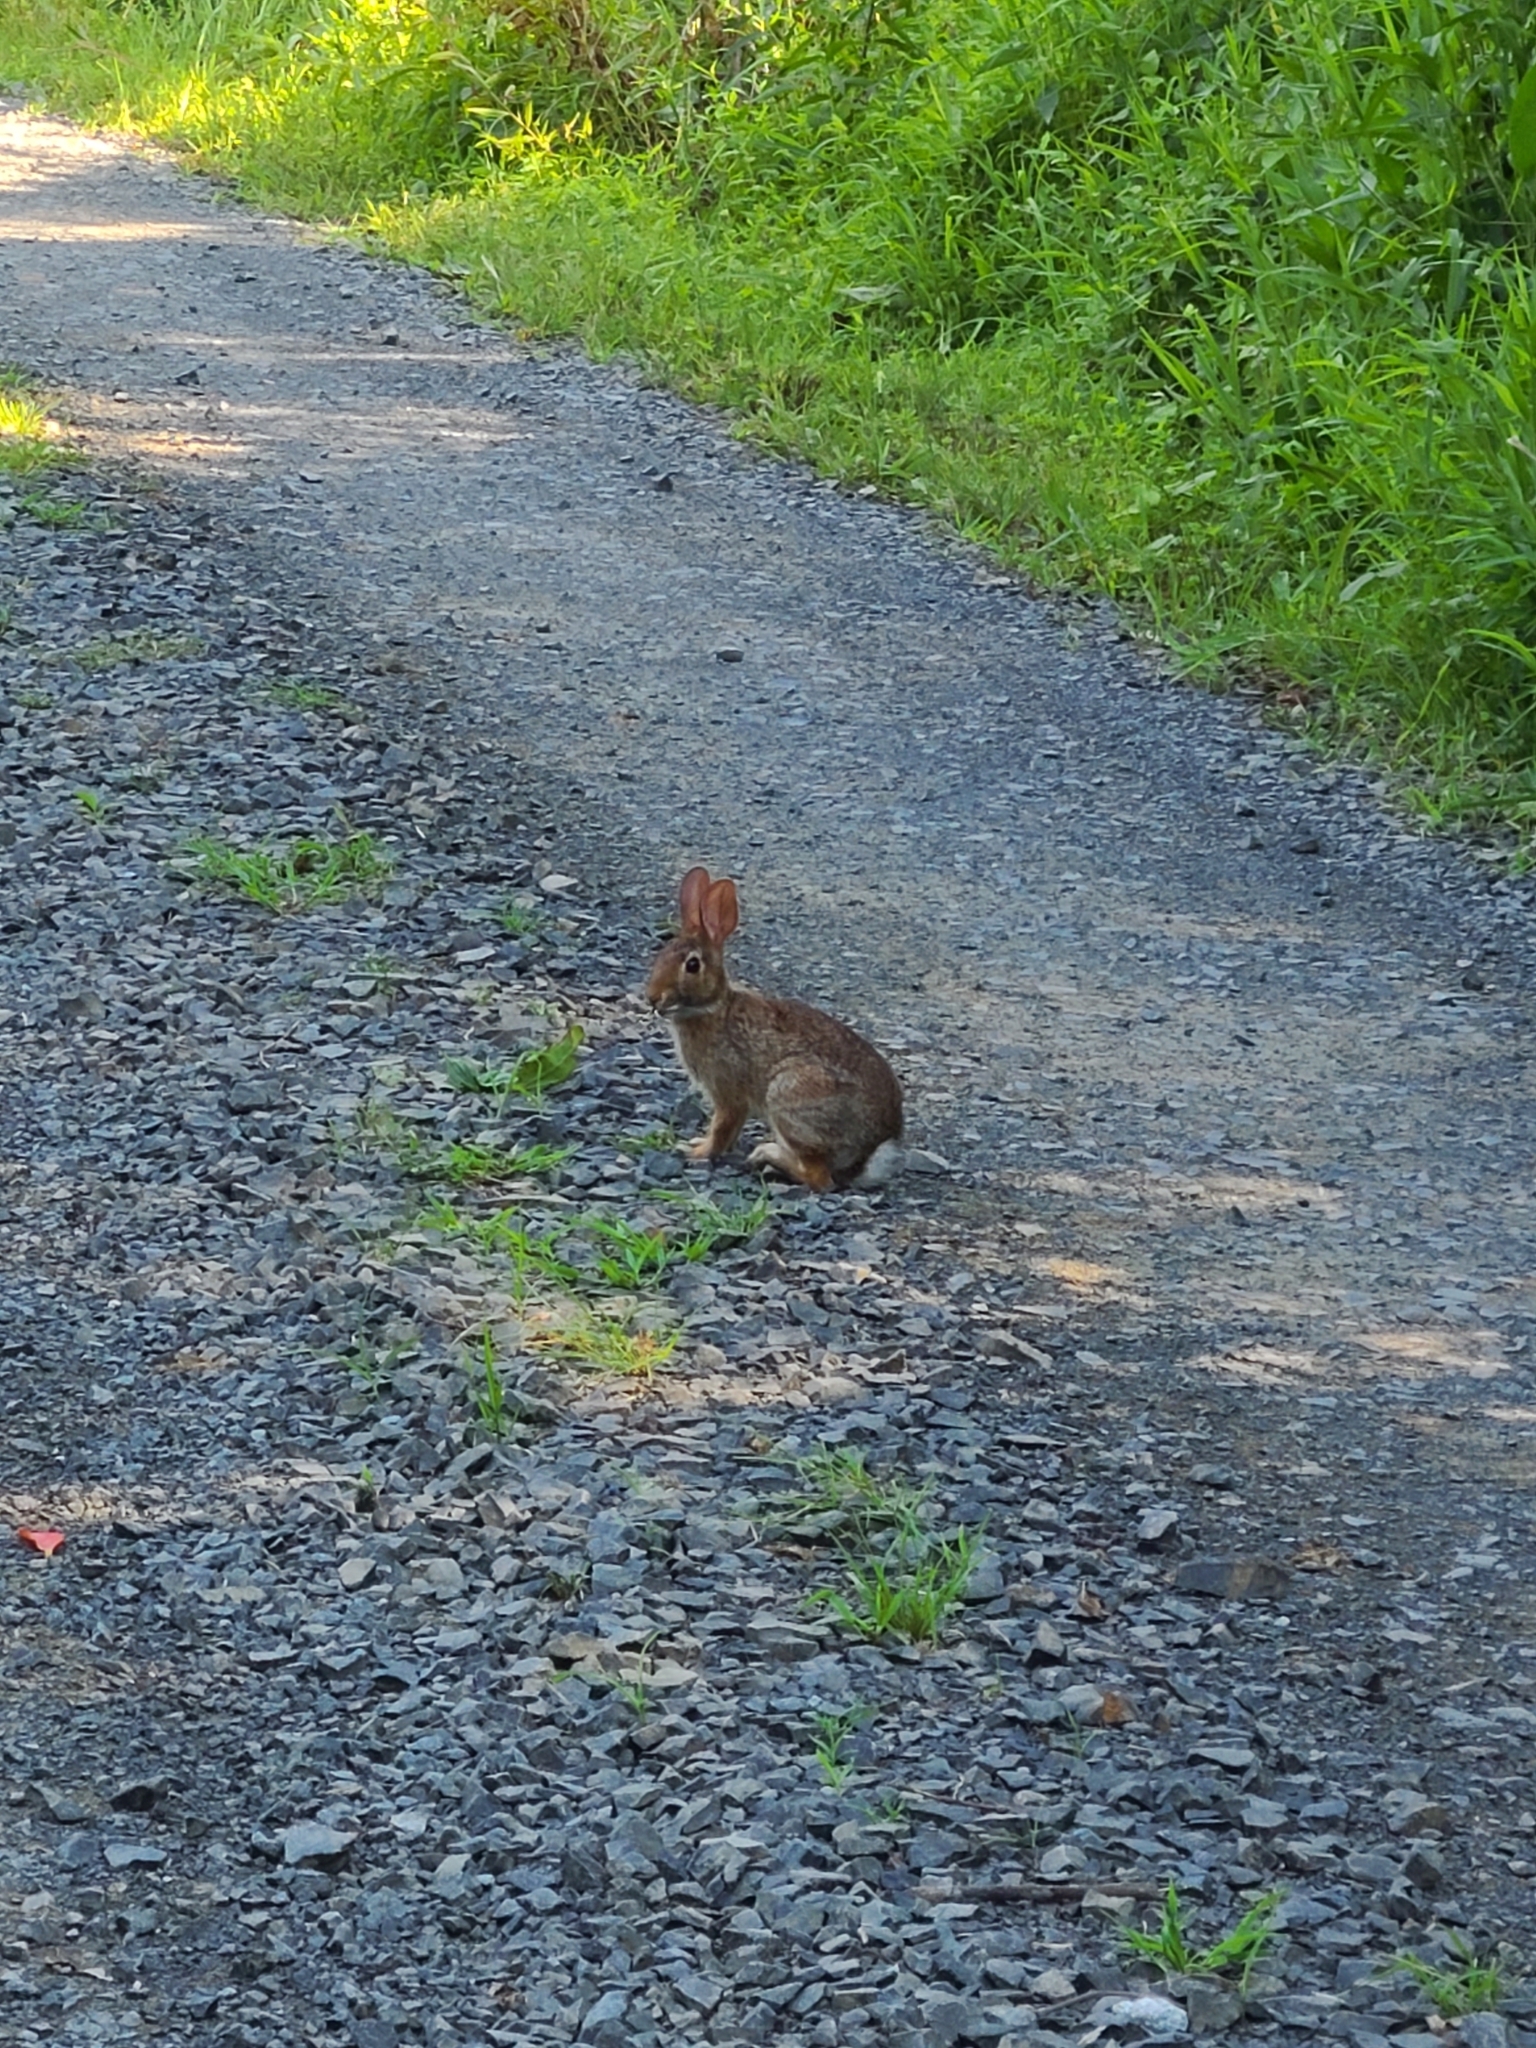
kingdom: Animalia
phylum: Chordata
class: Mammalia
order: Lagomorpha
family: Leporidae
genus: Sylvilagus
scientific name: Sylvilagus floridanus
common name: Eastern cottontail
